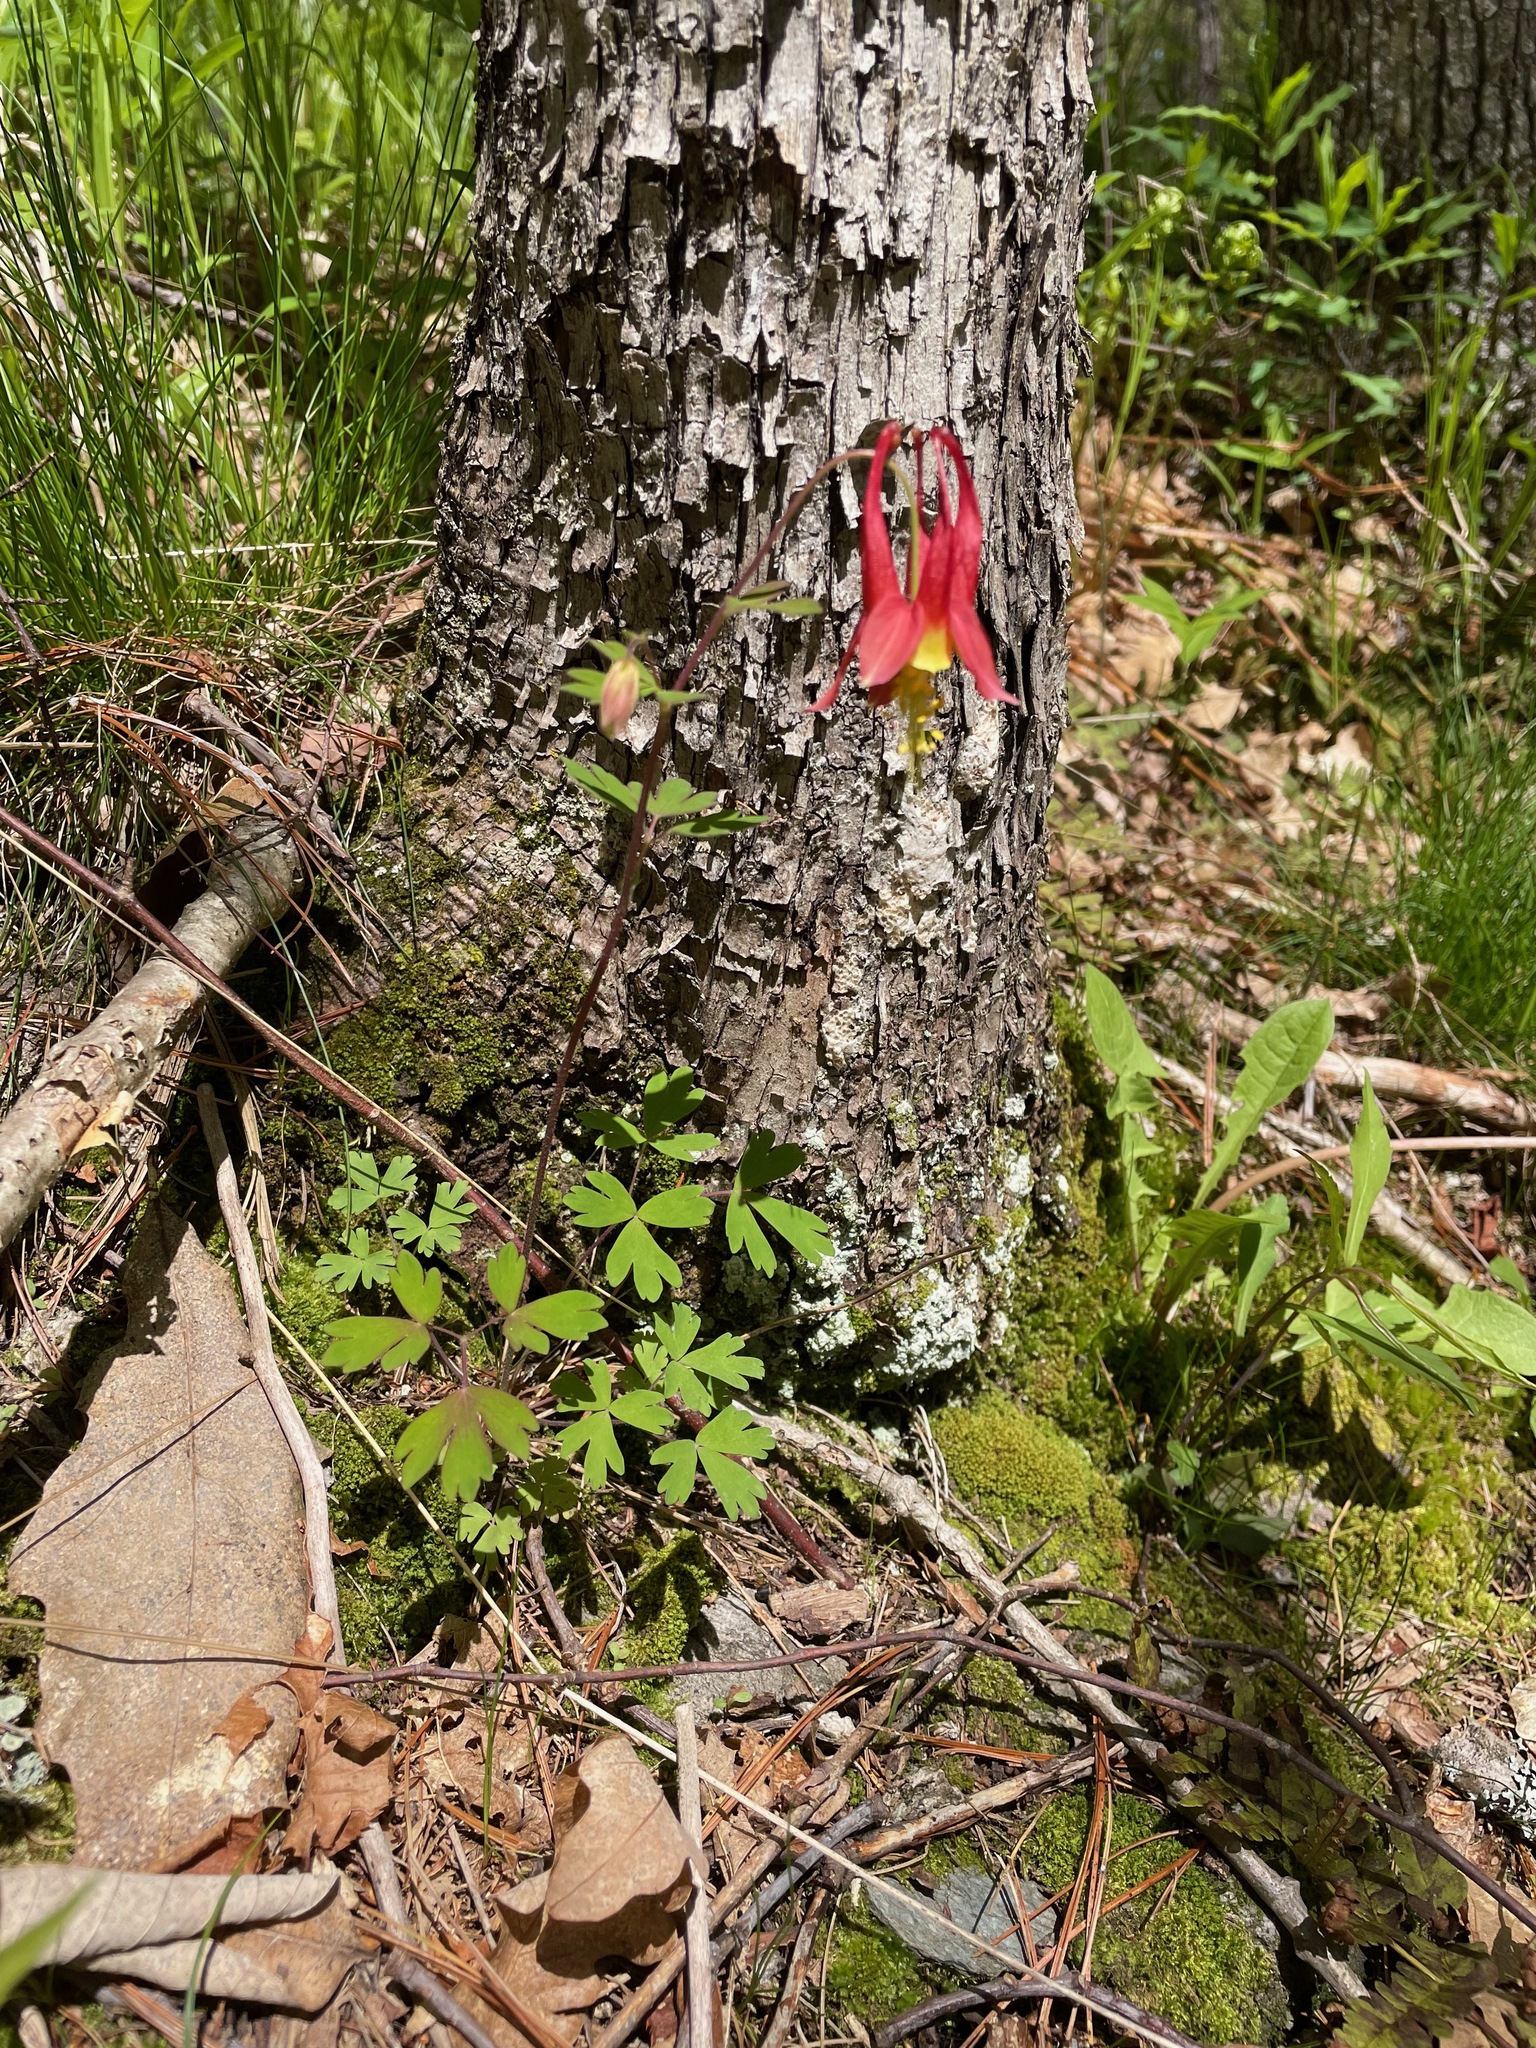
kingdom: Plantae
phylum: Tracheophyta
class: Magnoliopsida
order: Ranunculales
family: Ranunculaceae
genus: Aquilegia
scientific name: Aquilegia canadensis
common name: American columbine
